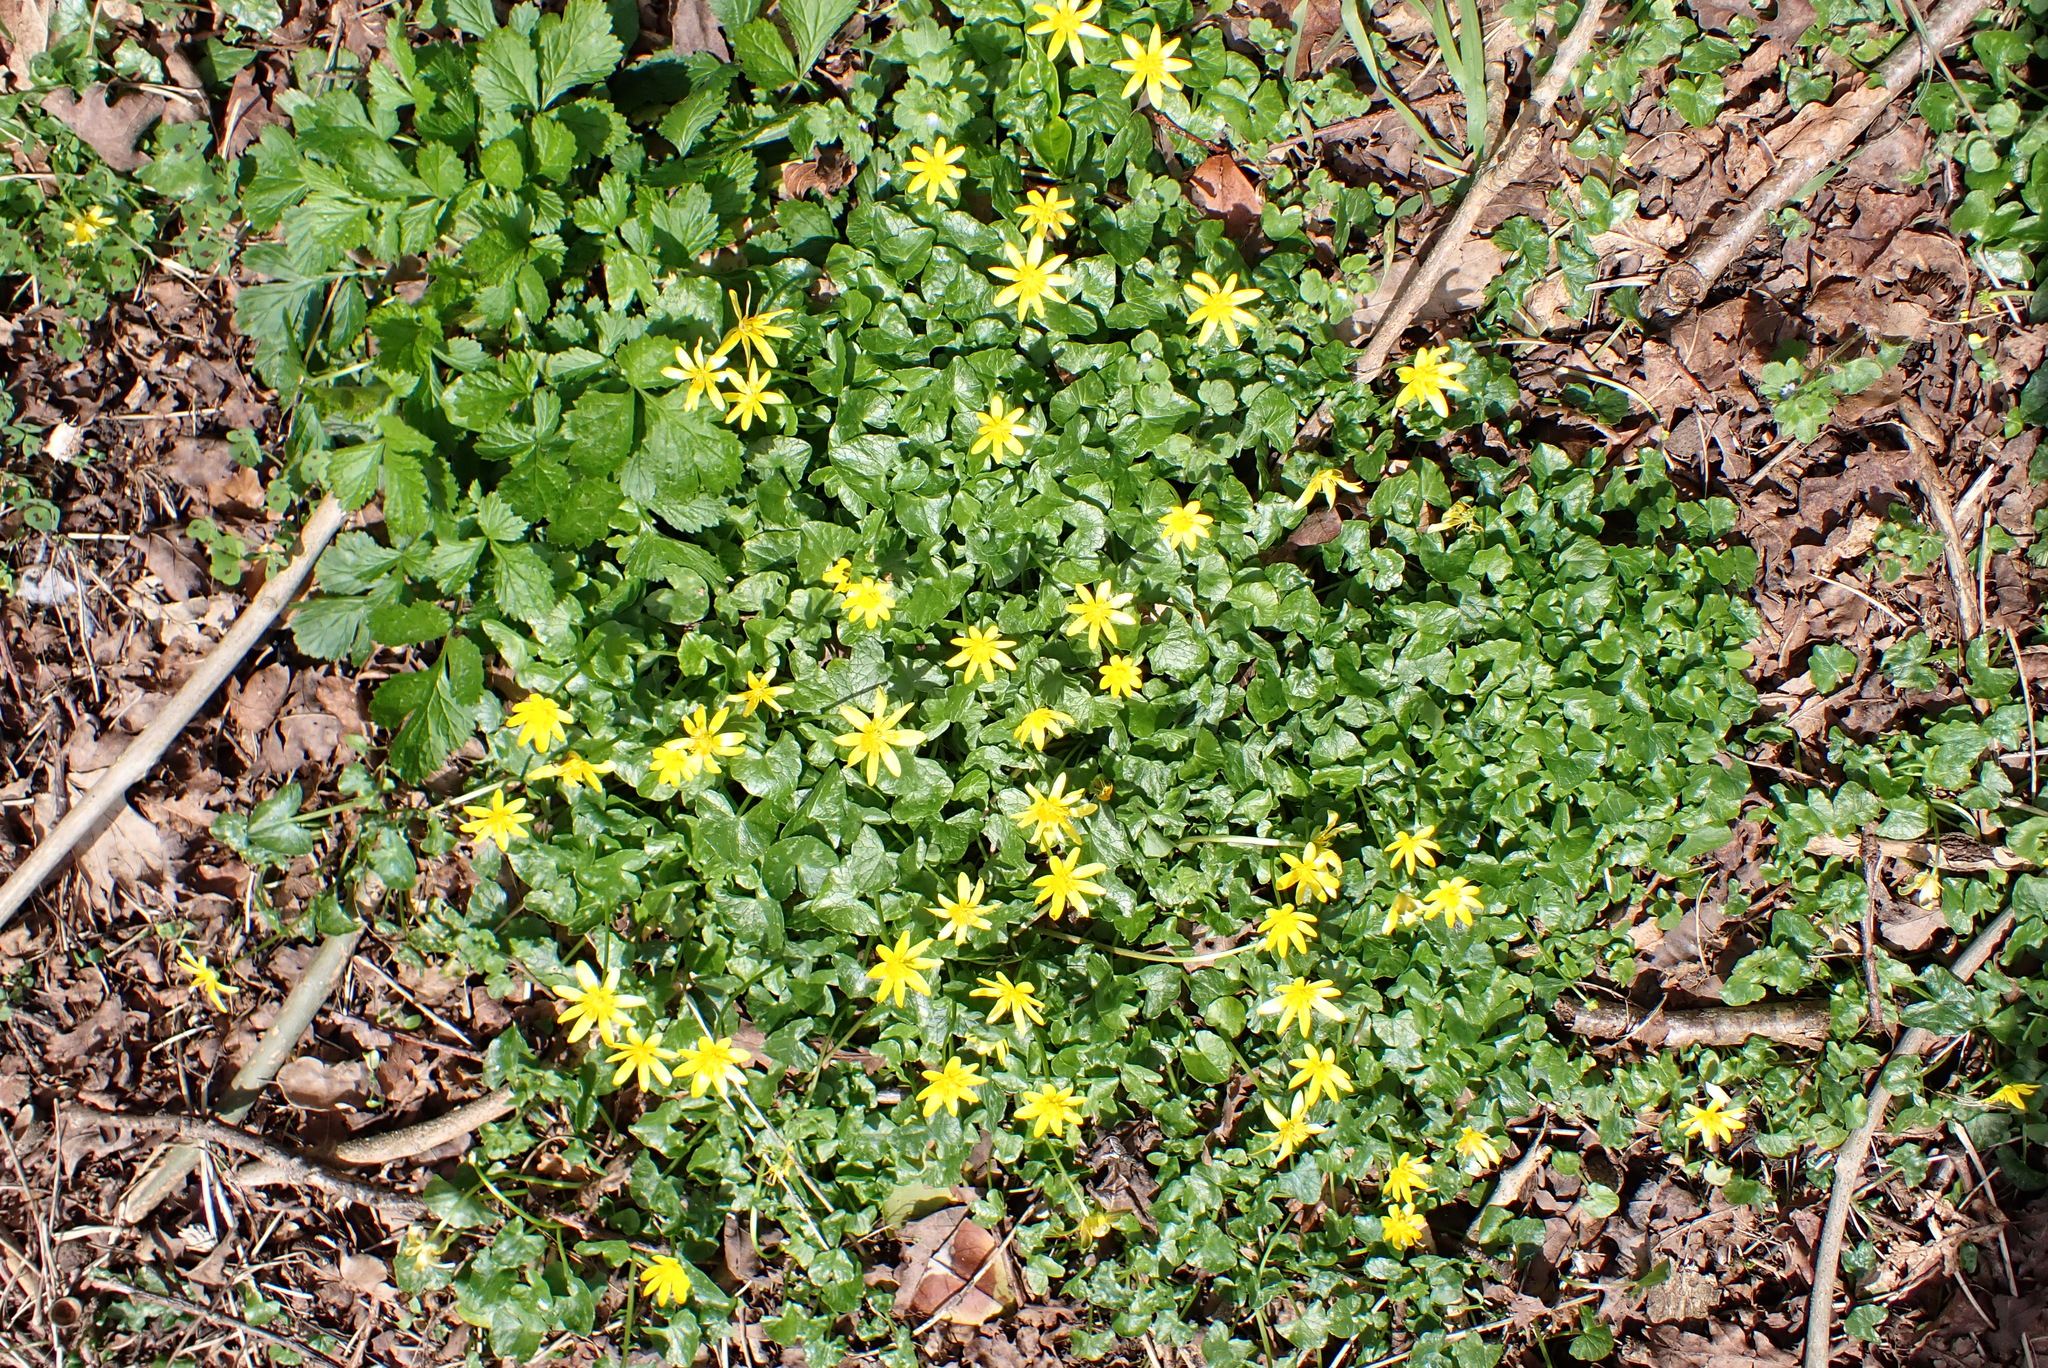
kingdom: Plantae
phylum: Tracheophyta
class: Magnoliopsida
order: Ranunculales
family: Ranunculaceae
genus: Ficaria
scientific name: Ficaria verna
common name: Lesser celandine
